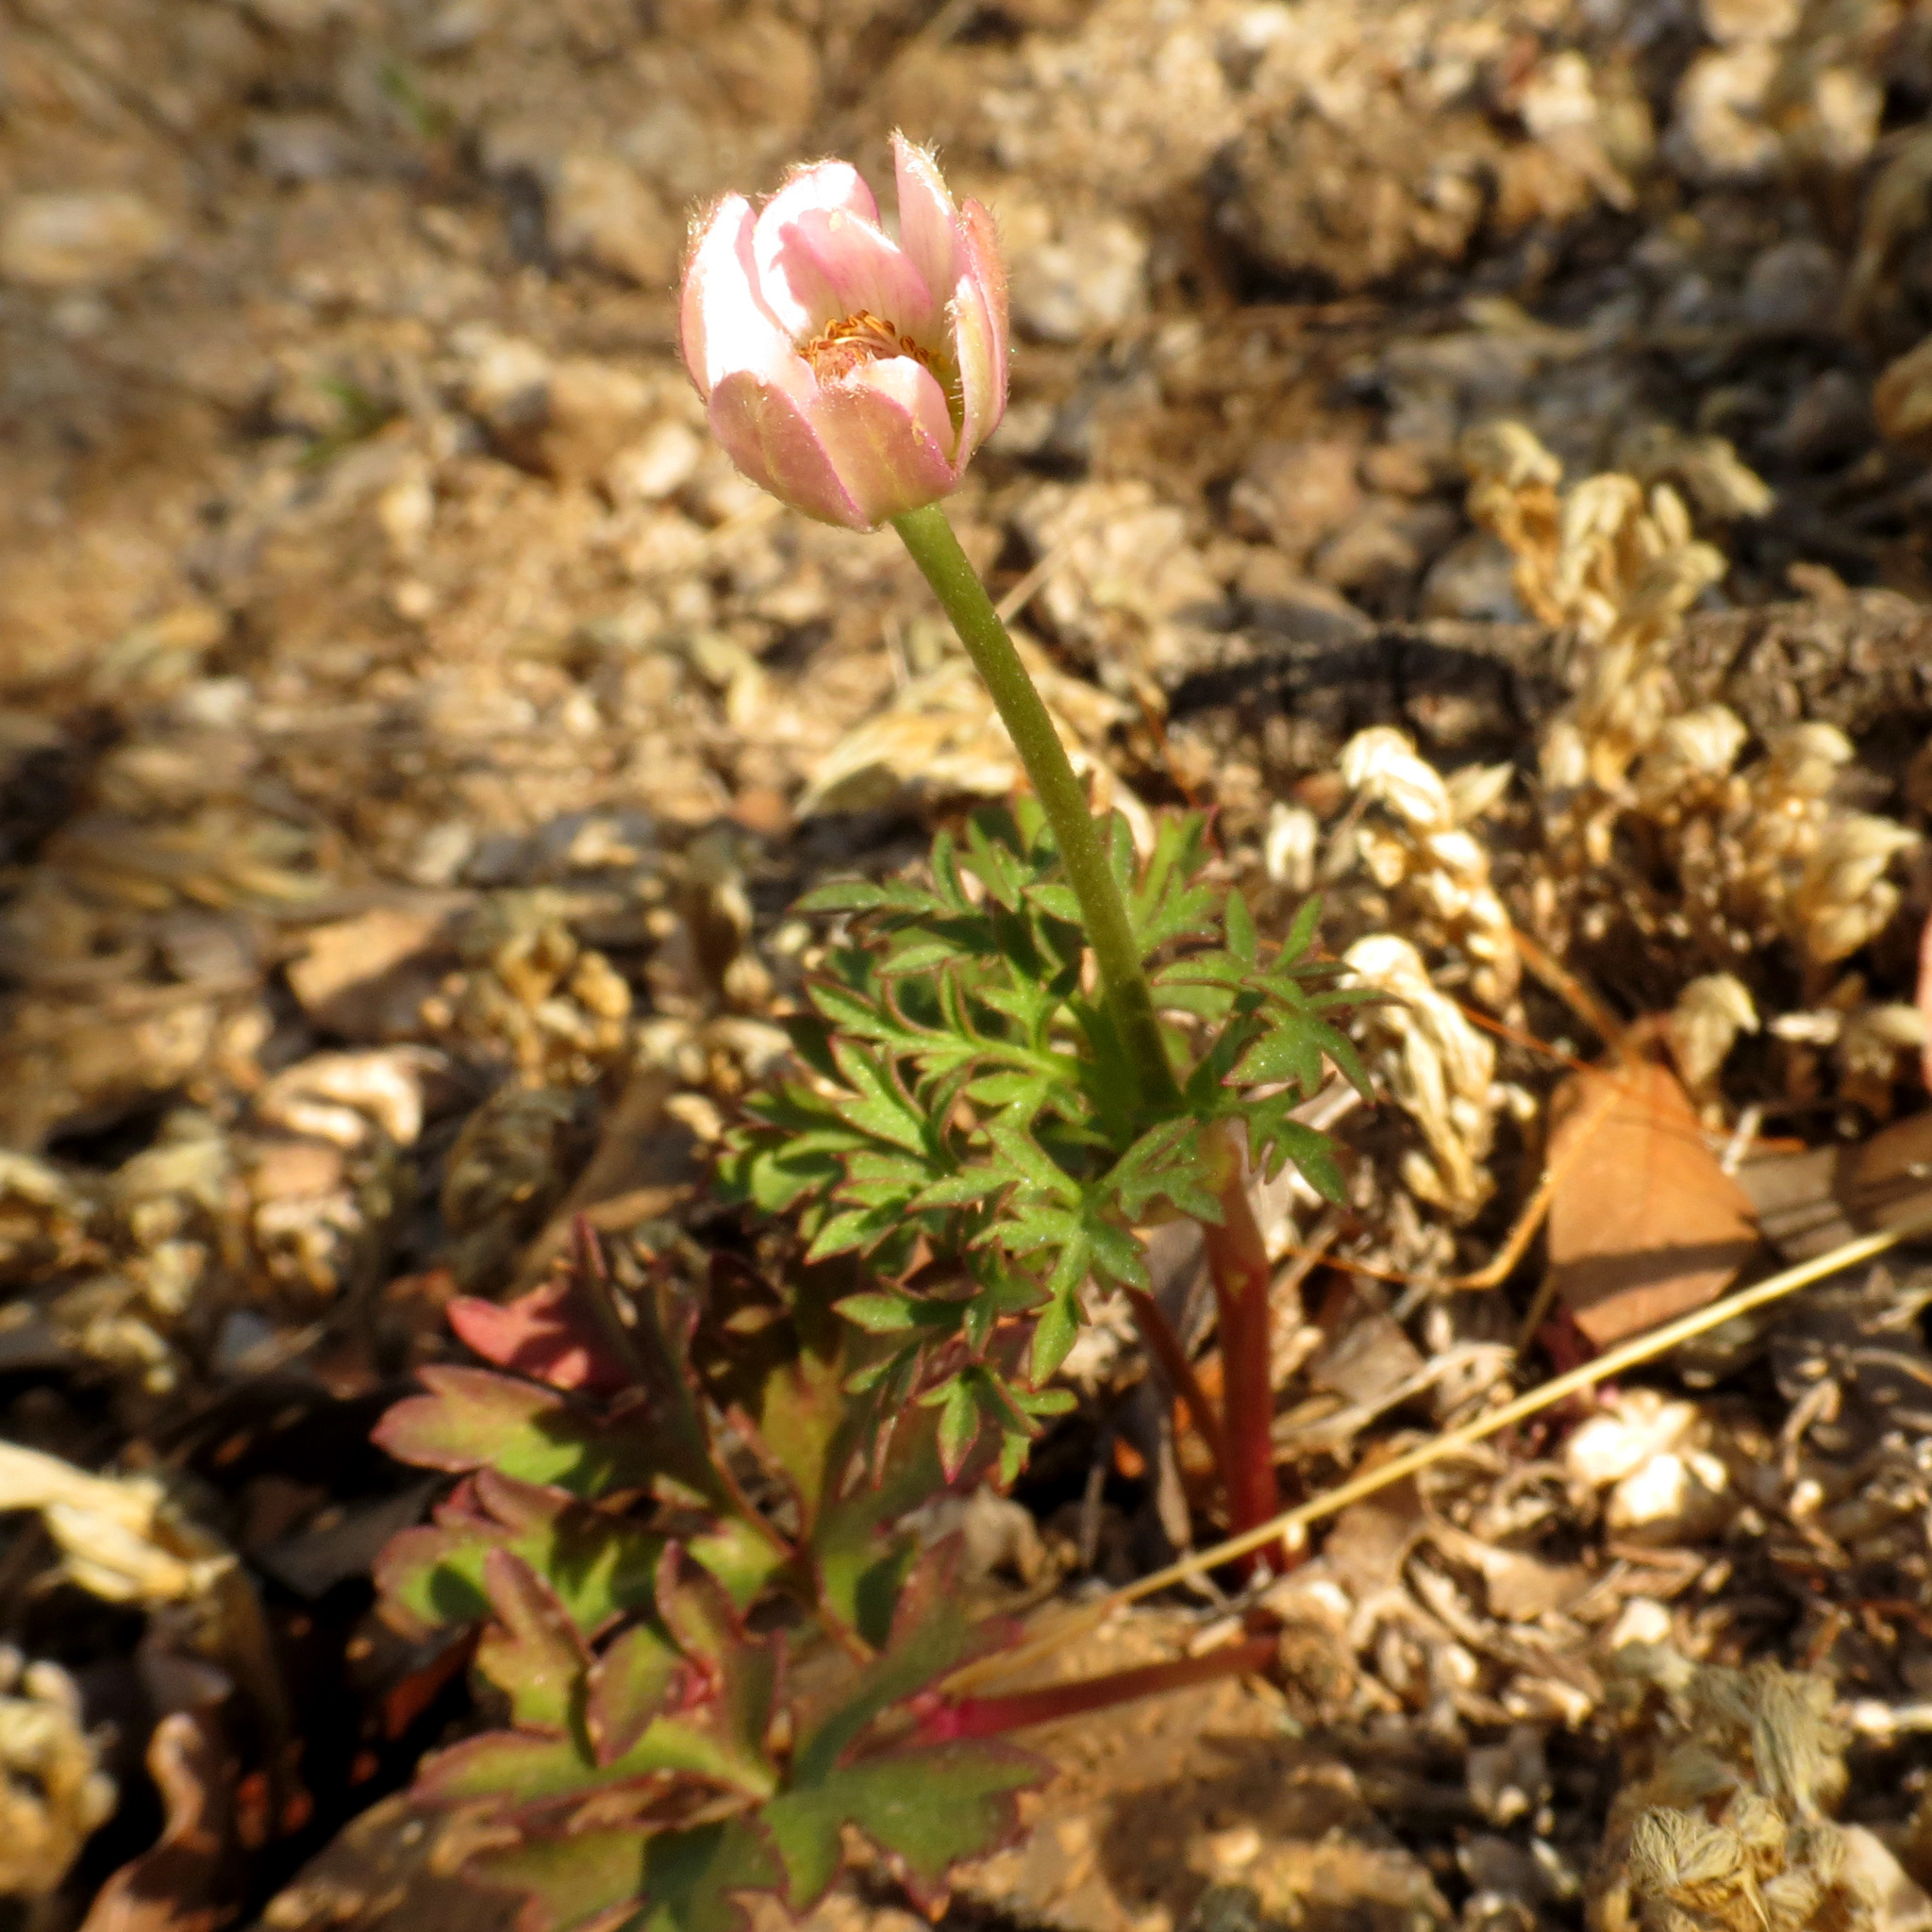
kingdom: Plantae
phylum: Tracheophyta
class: Magnoliopsida
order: Ranunculales
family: Ranunculaceae
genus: Anemone
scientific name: Anemone tuberosa
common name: Desert anemone
